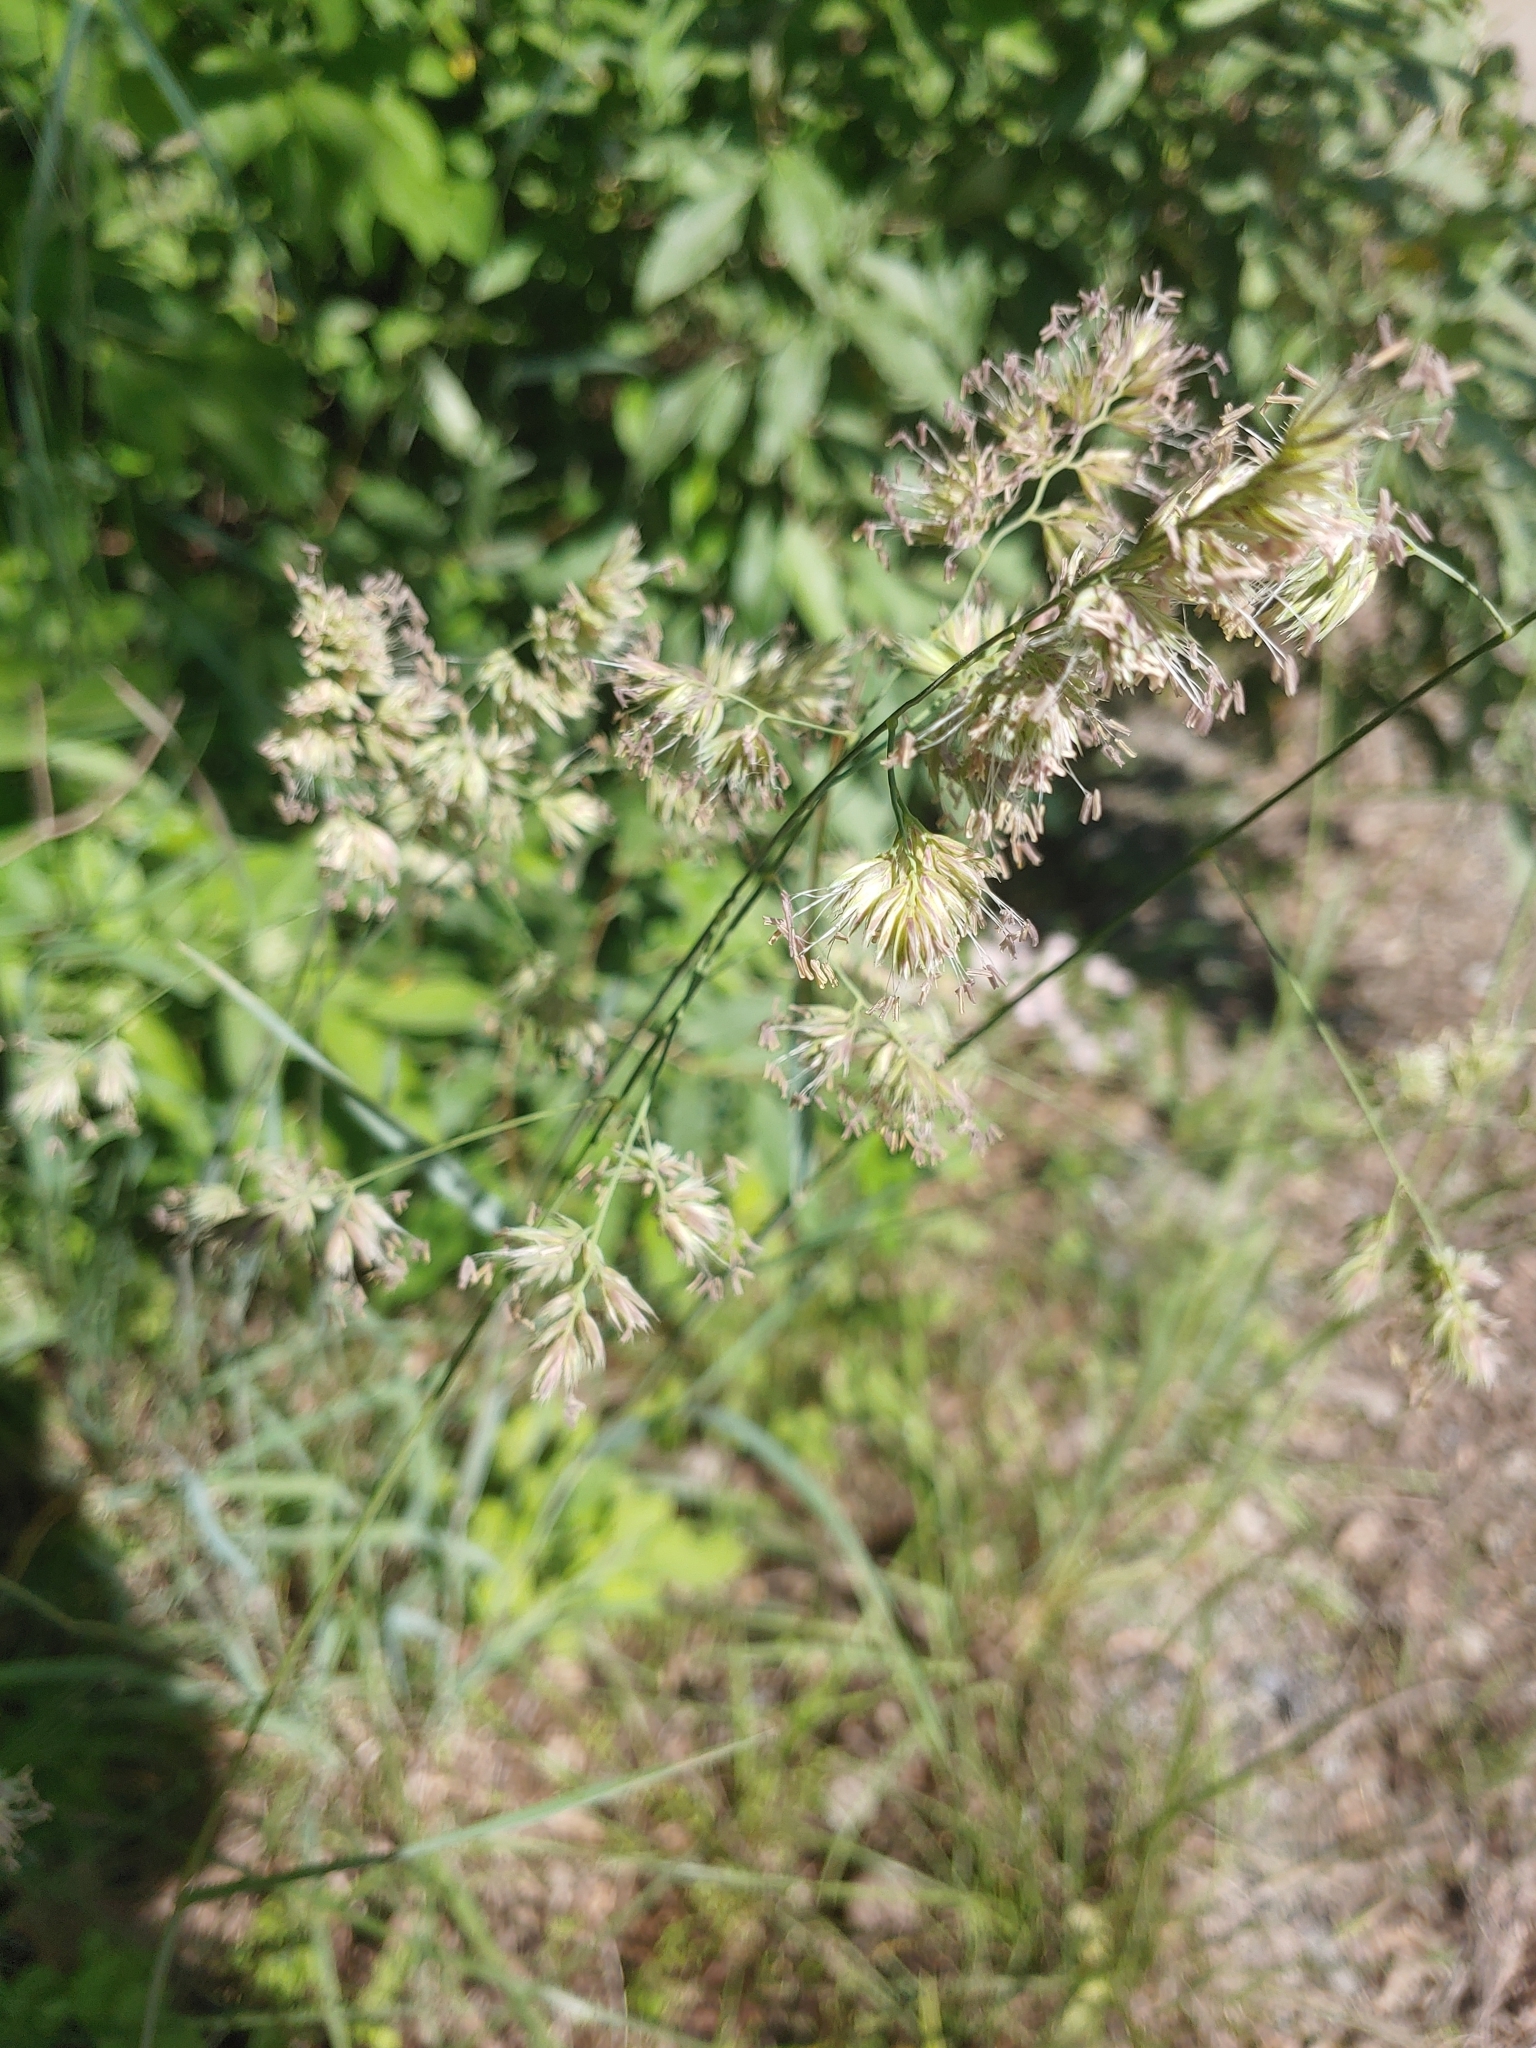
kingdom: Plantae
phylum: Tracheophyta
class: Liliopsida
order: Poales
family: Poaceae
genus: Dactylis
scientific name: Dactylis glomerata
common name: Orchardgrass
